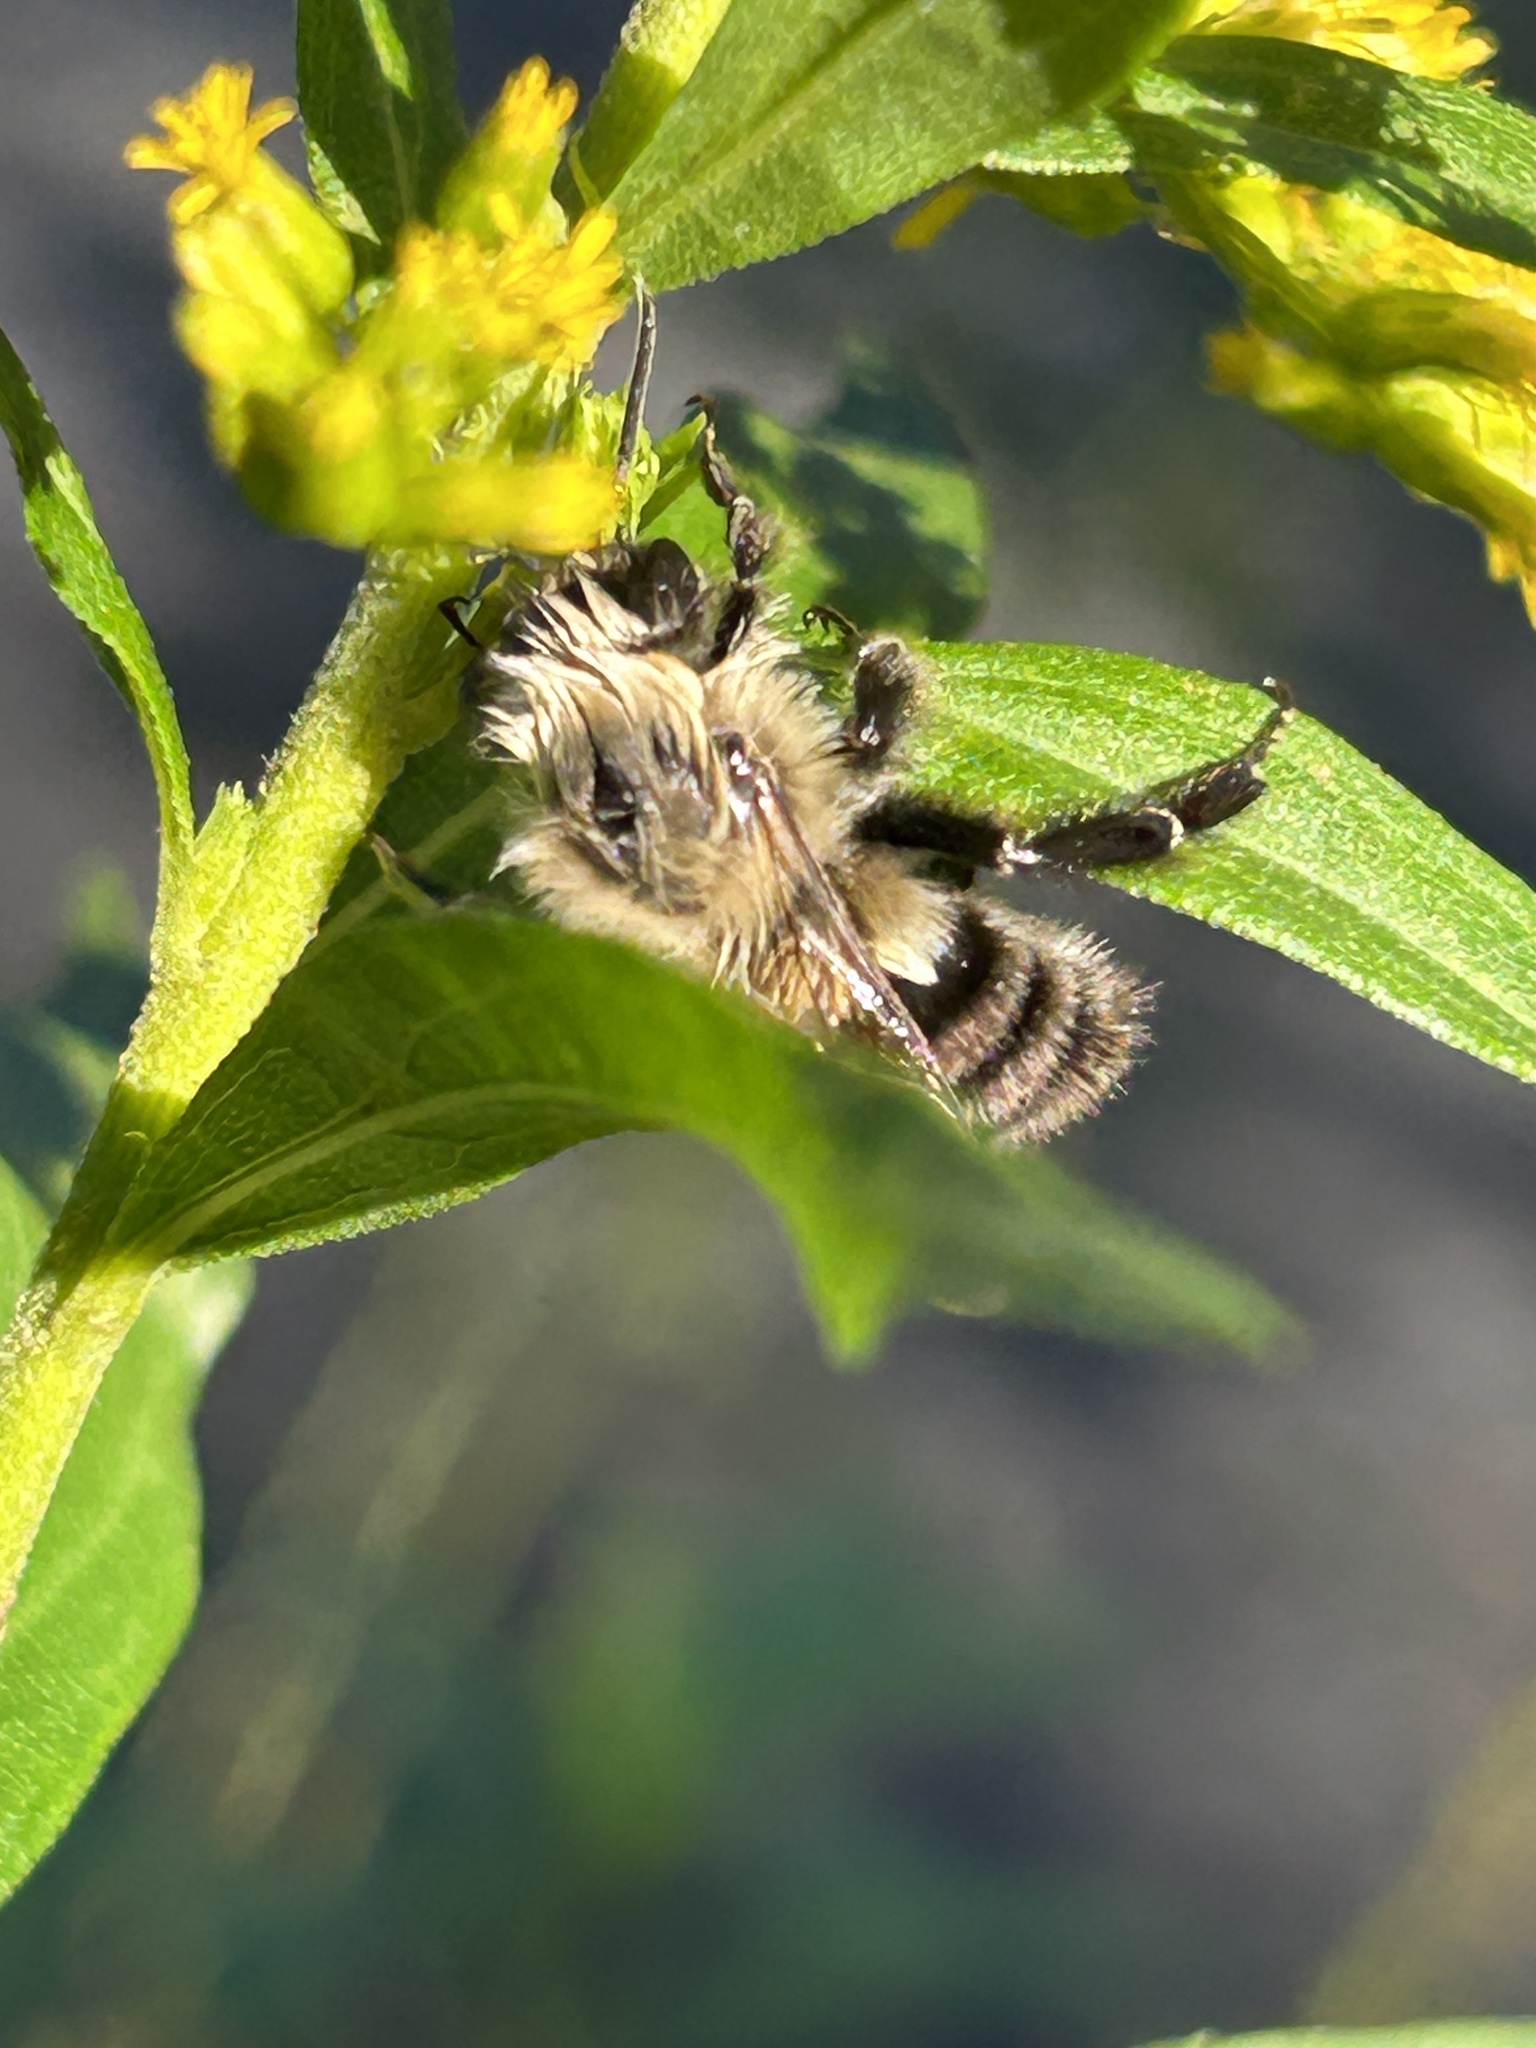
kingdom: Animalia
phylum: Arthropoda
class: Insecta
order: Hymenoptera
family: Apidae
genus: Bombus
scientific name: Bombus impatiens
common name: Common eastern bumble bee
